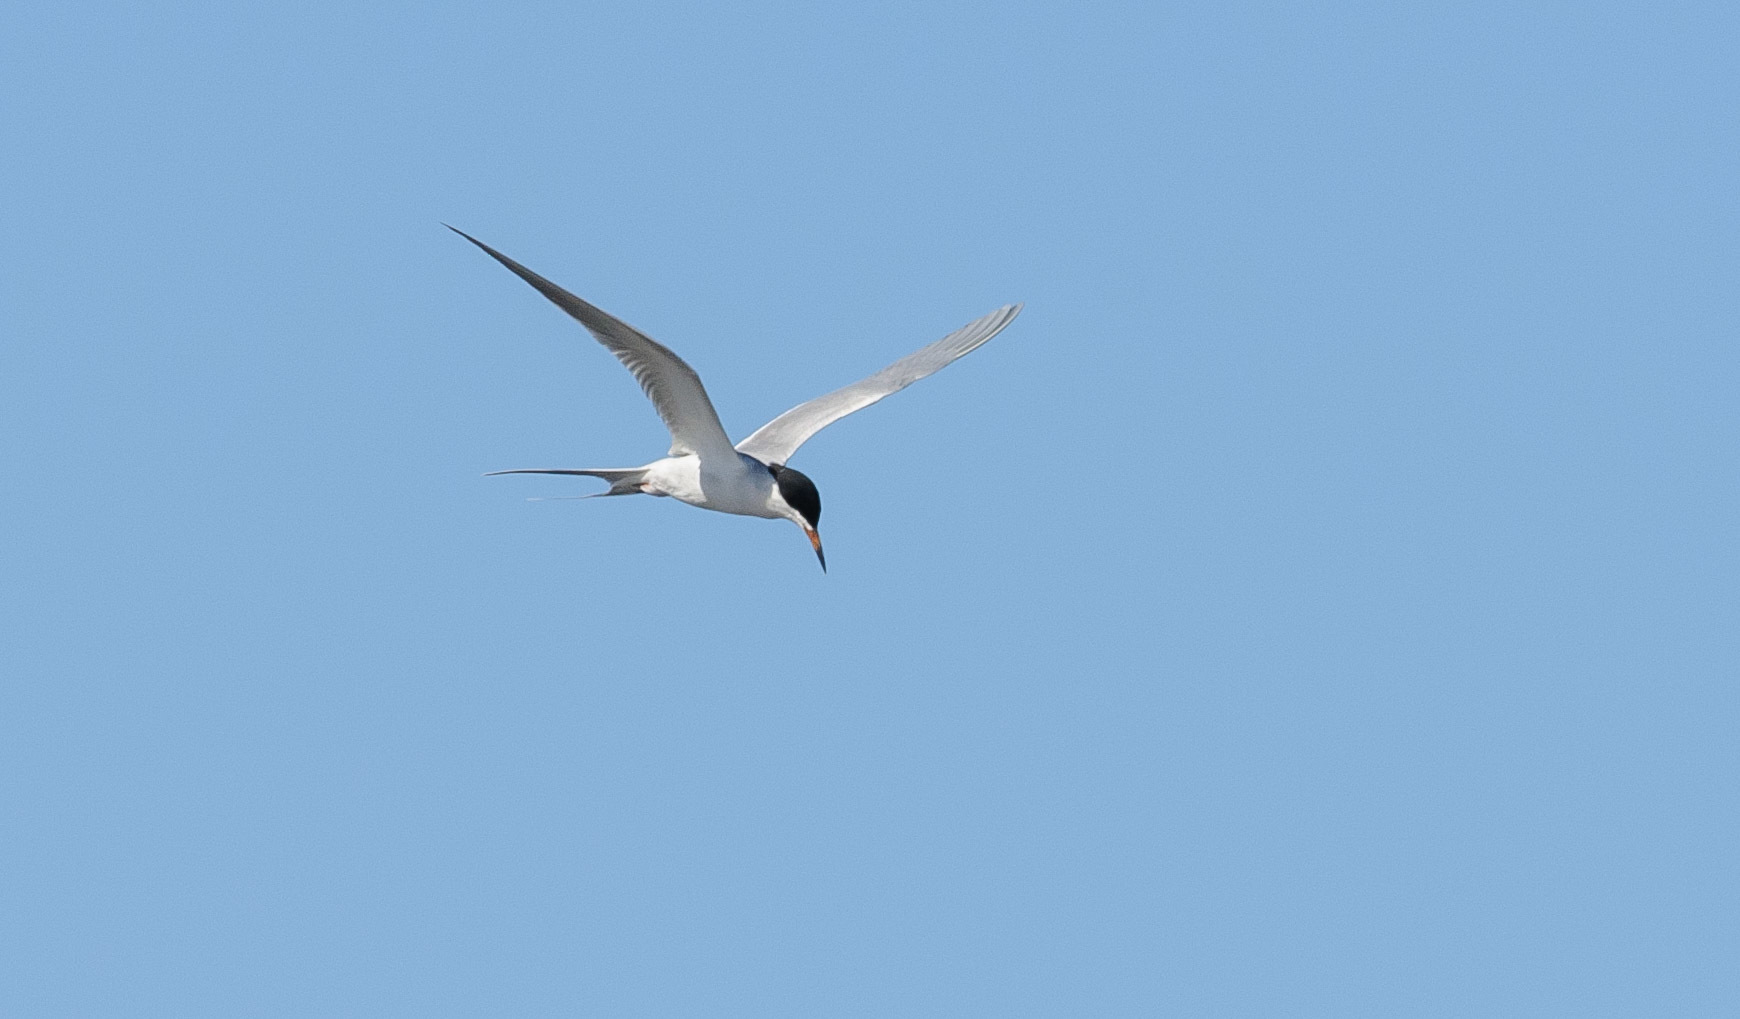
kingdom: Animalia
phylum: Chordata
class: Aves
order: Charadriiformes
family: Laridae
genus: Sterna
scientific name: Sterna forsteri
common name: Forster's tern
